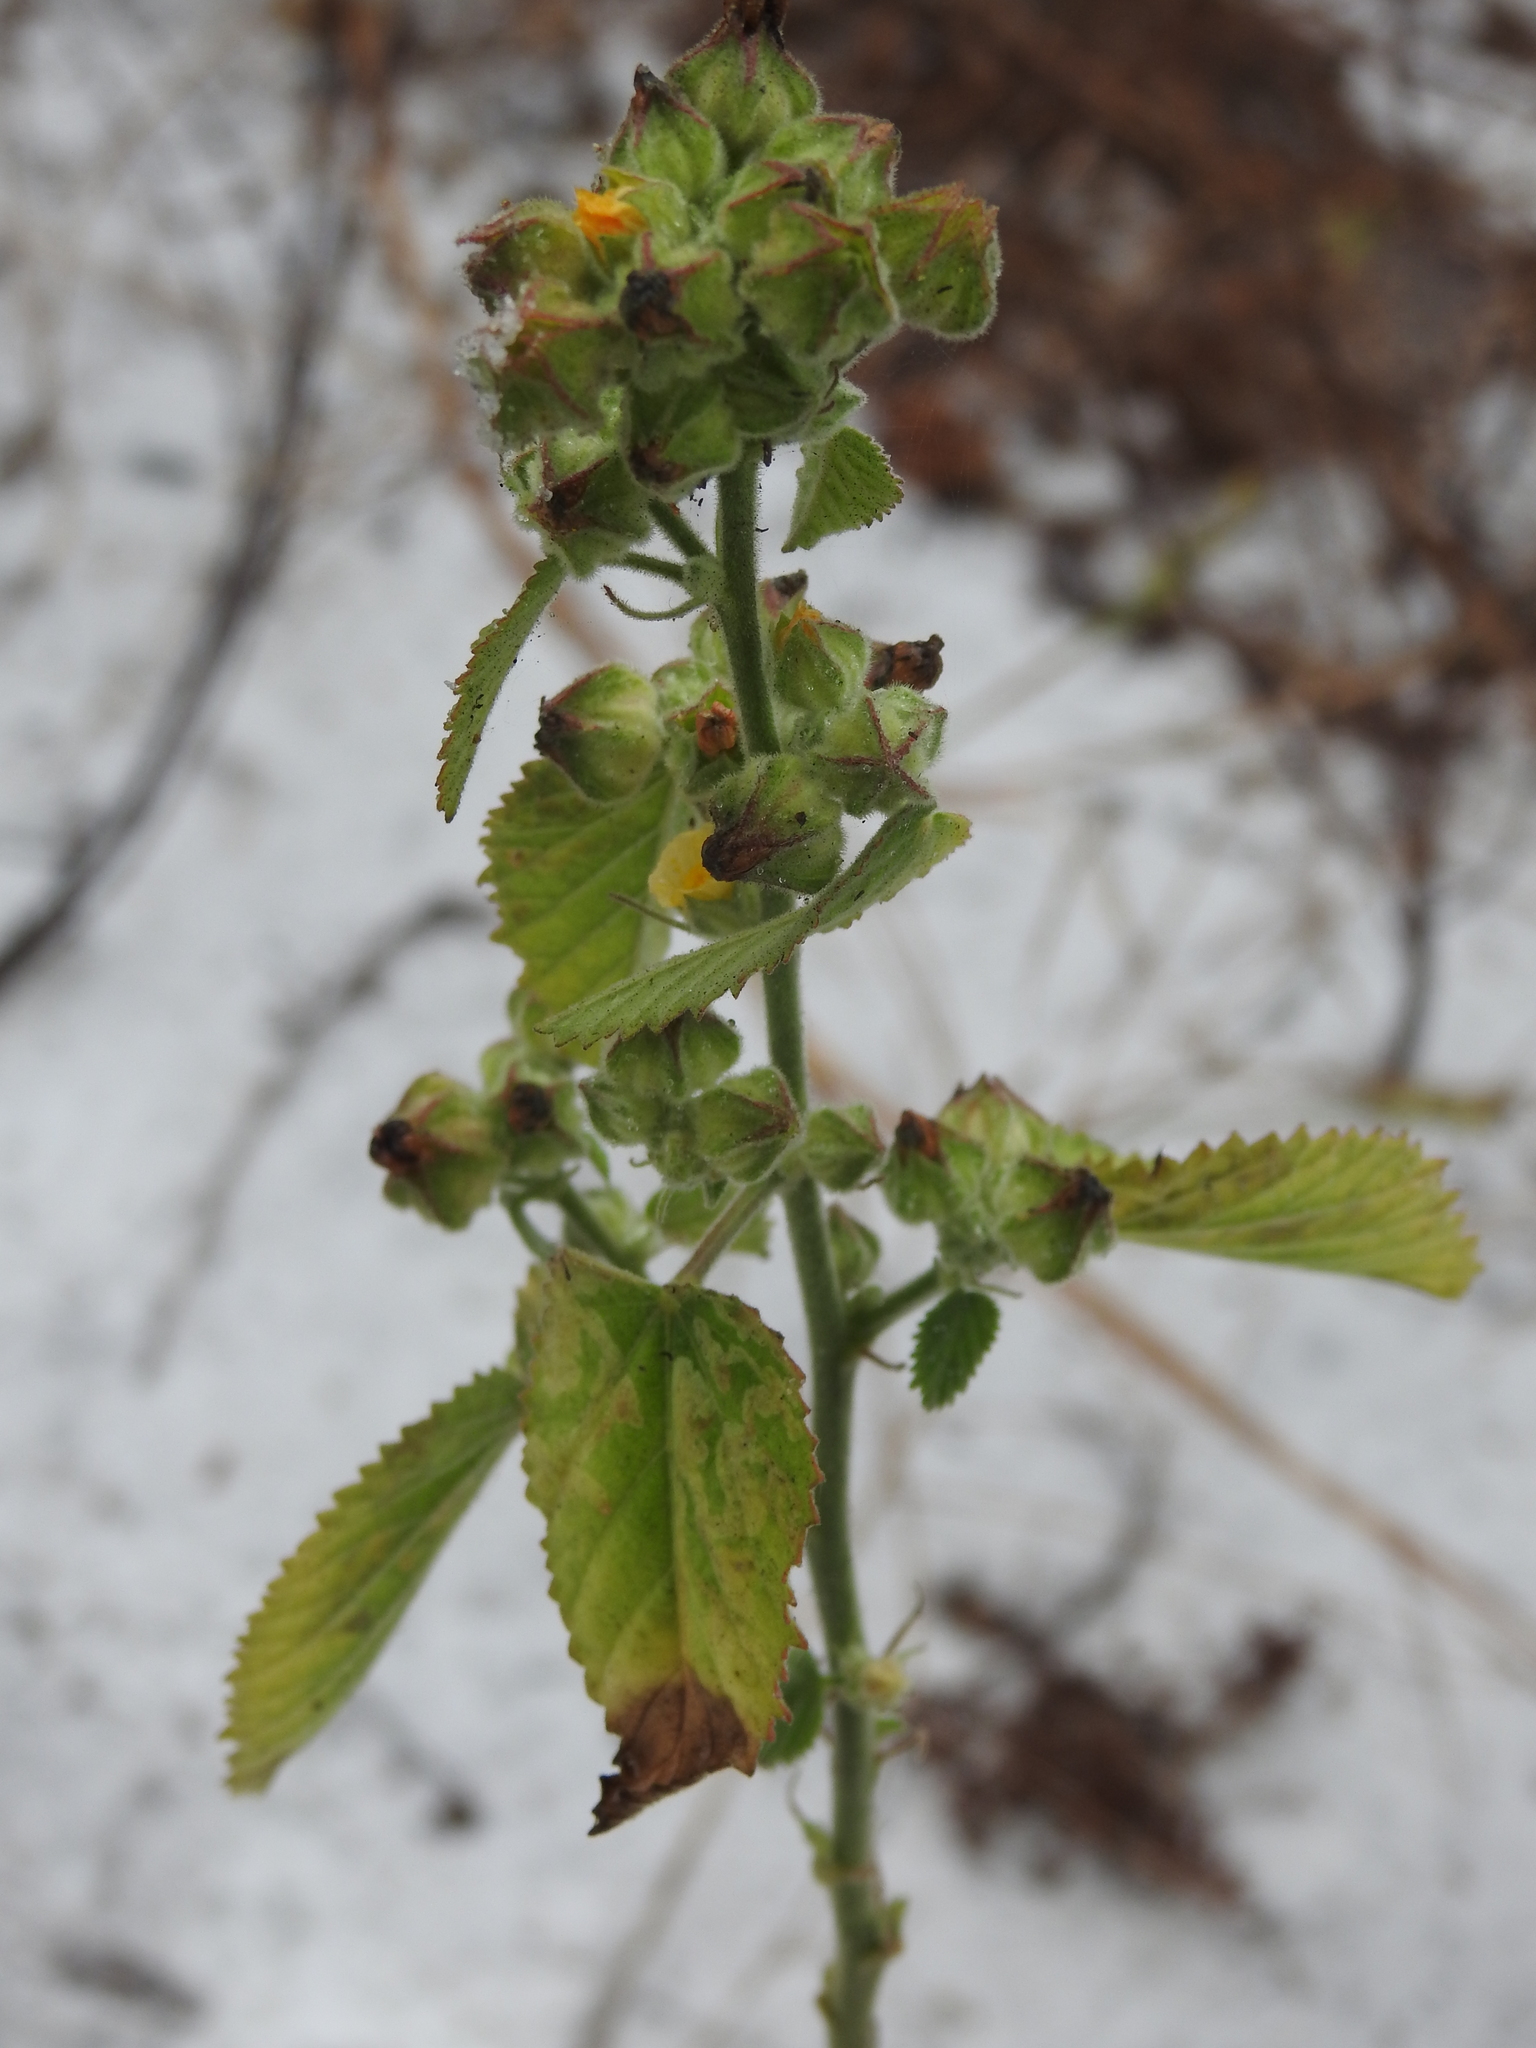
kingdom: Plantae
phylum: Tracheophyta
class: Magnoliopsida
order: Malvales
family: Malvaceae
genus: Sida
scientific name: Sida cordifolia
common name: Ilima
